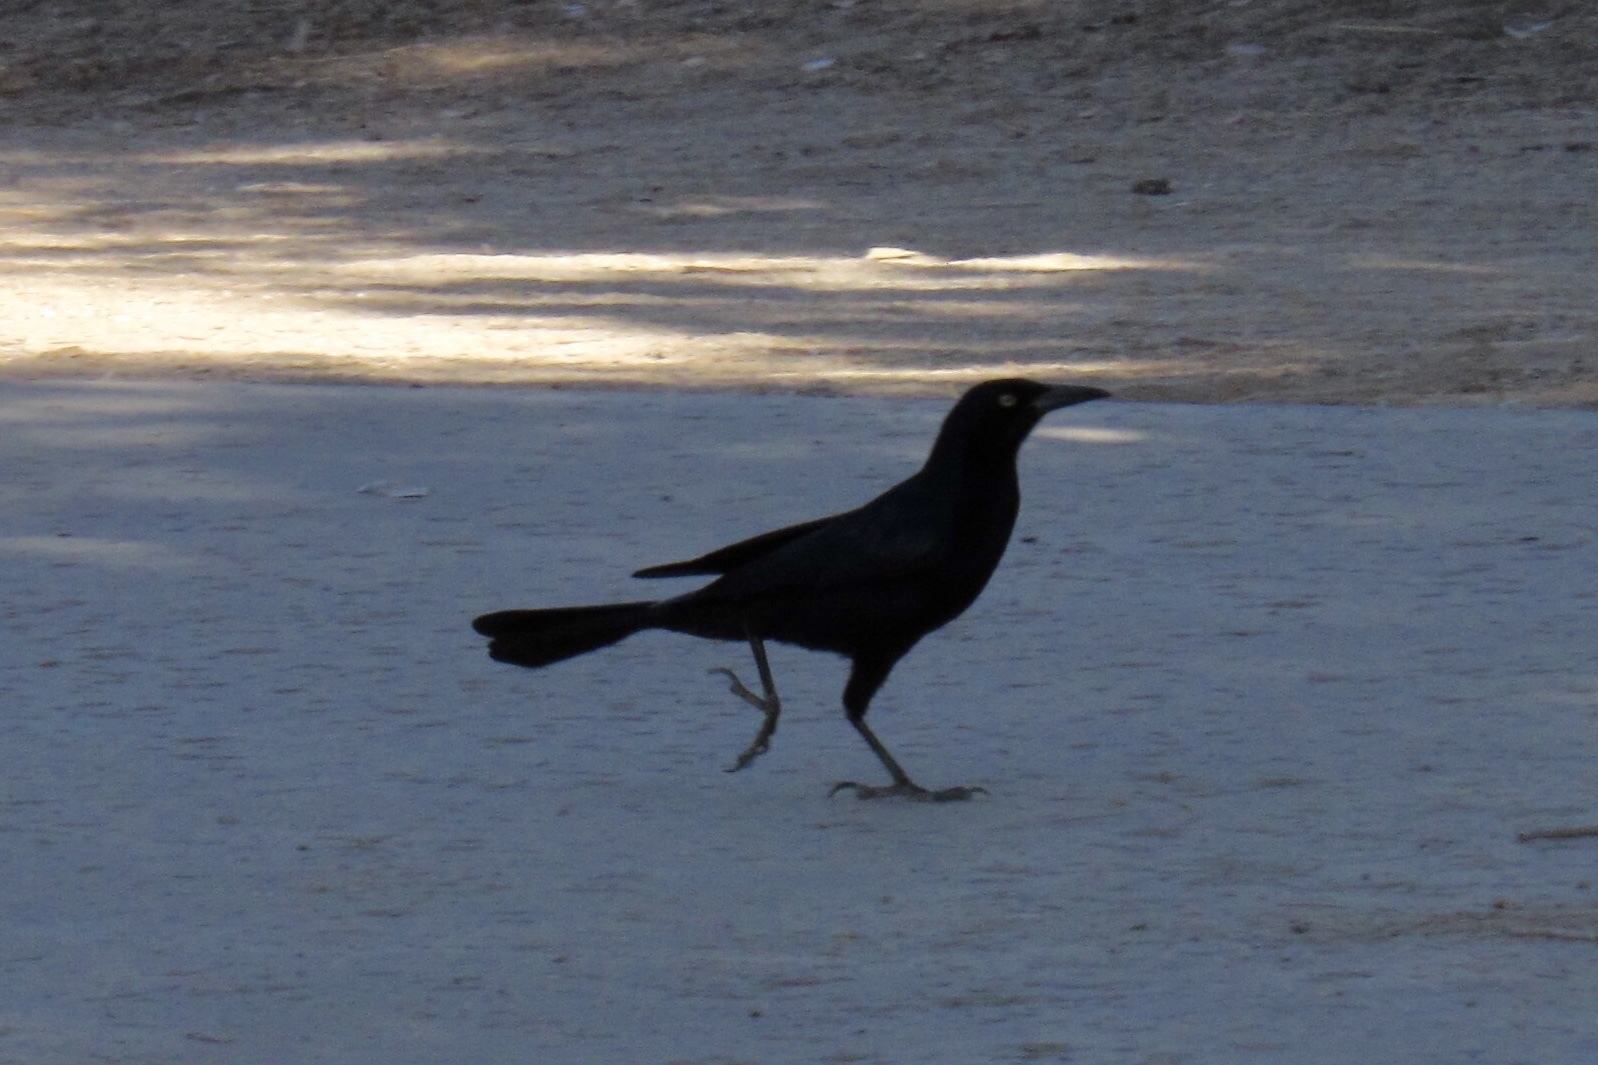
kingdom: Animalia
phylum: Chordata
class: Aves
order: Passeriformes
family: Icteridae
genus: Quiscalus
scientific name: Quiscalus mexicanus
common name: Great-tailed grackle
